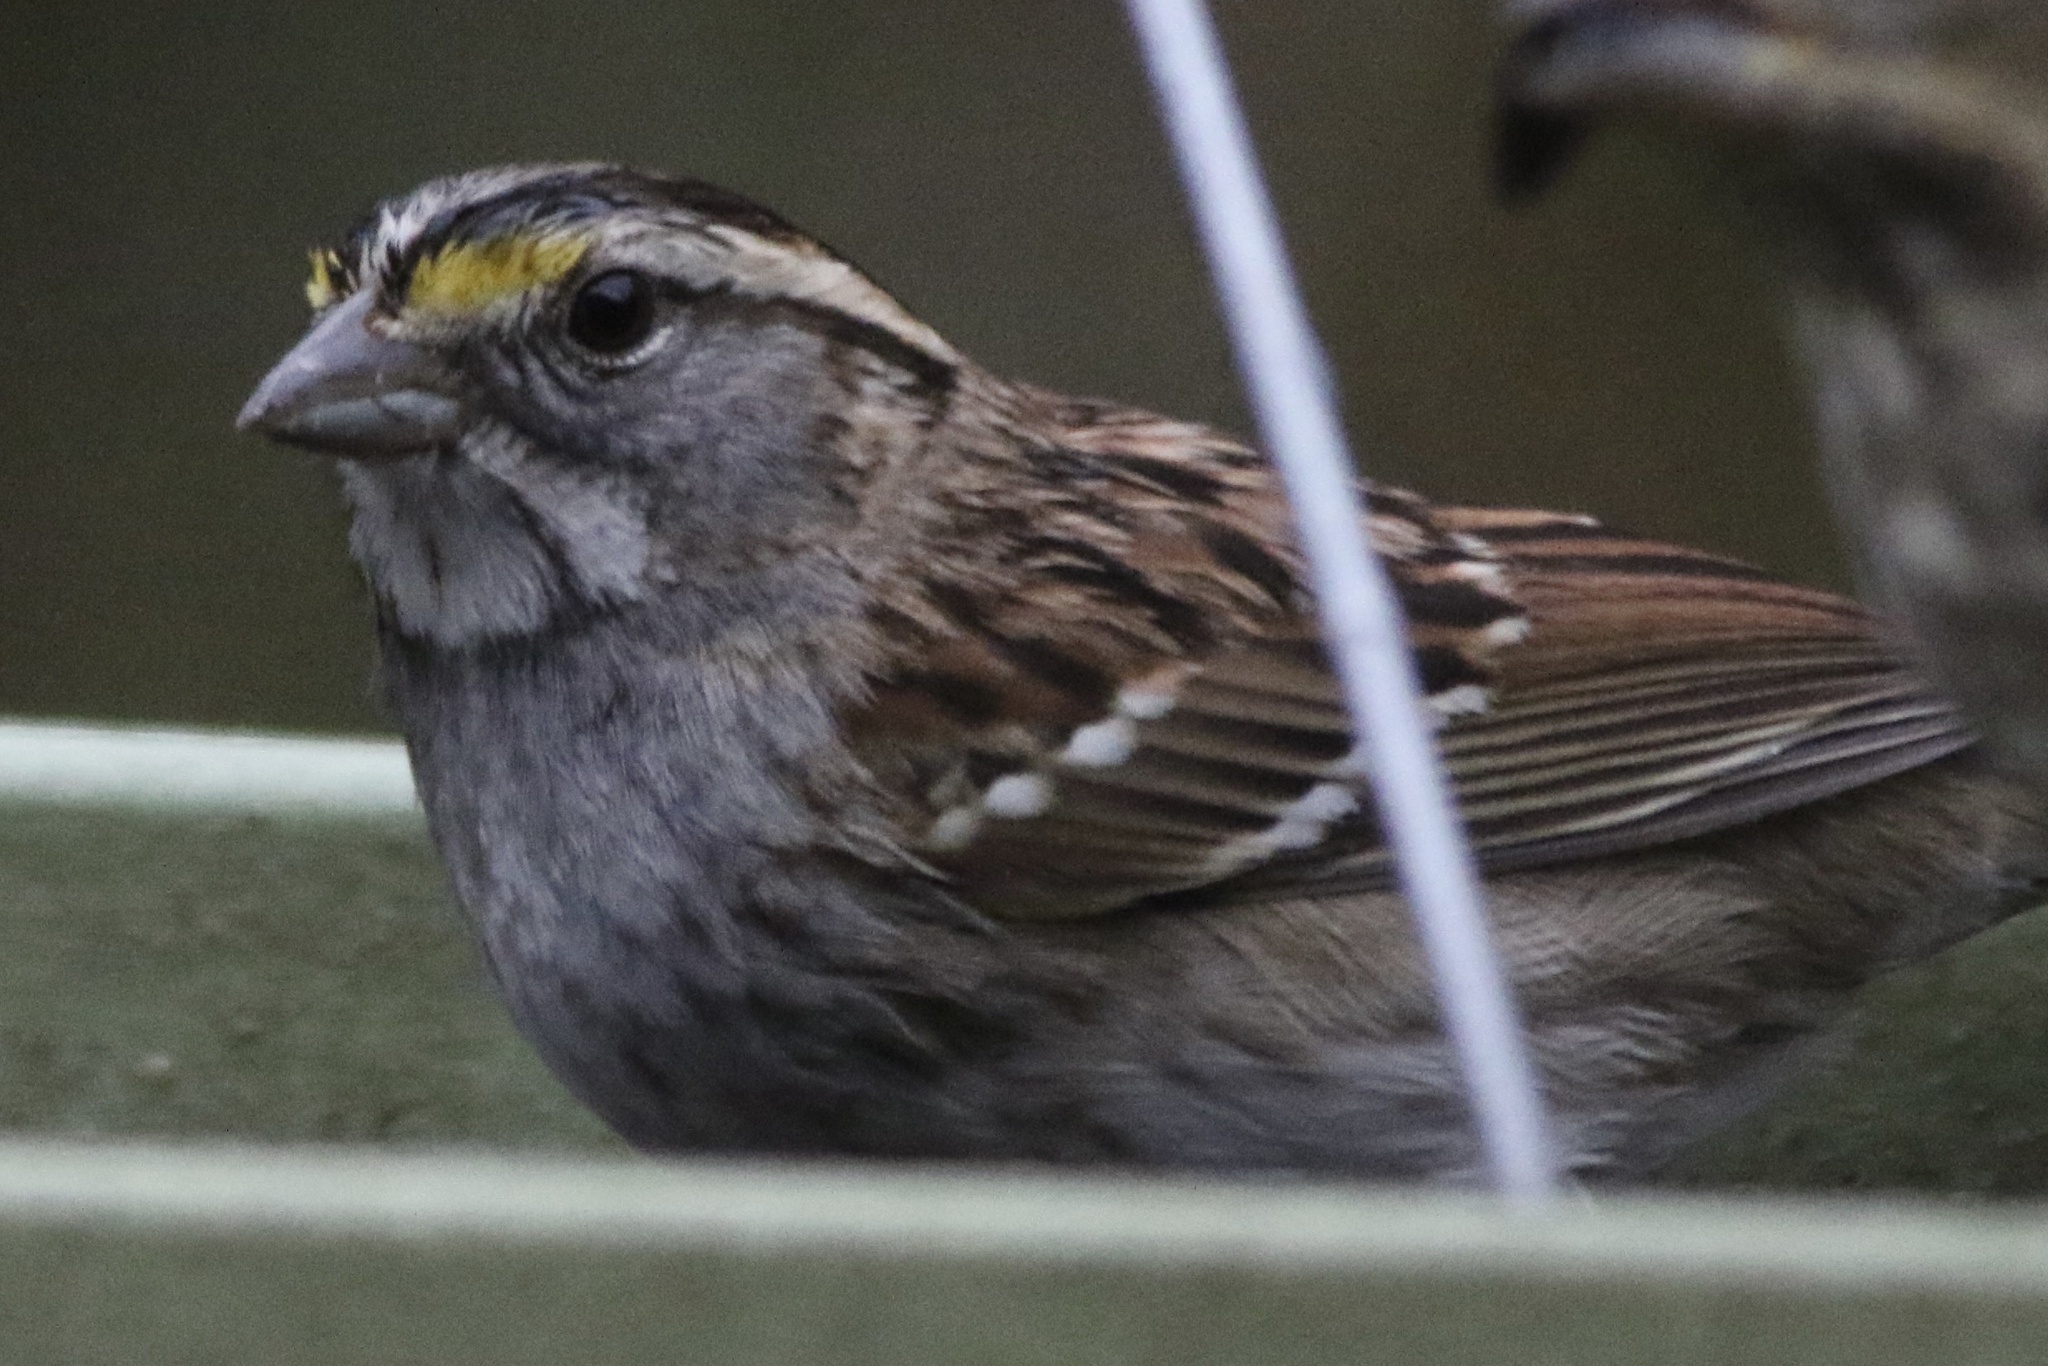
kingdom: Animalia
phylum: Chordata
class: Aves
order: Passeriformes
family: Passerellidae
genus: Zonotrichia
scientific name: Zonotrichia albicollis
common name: White-throated sparrow
